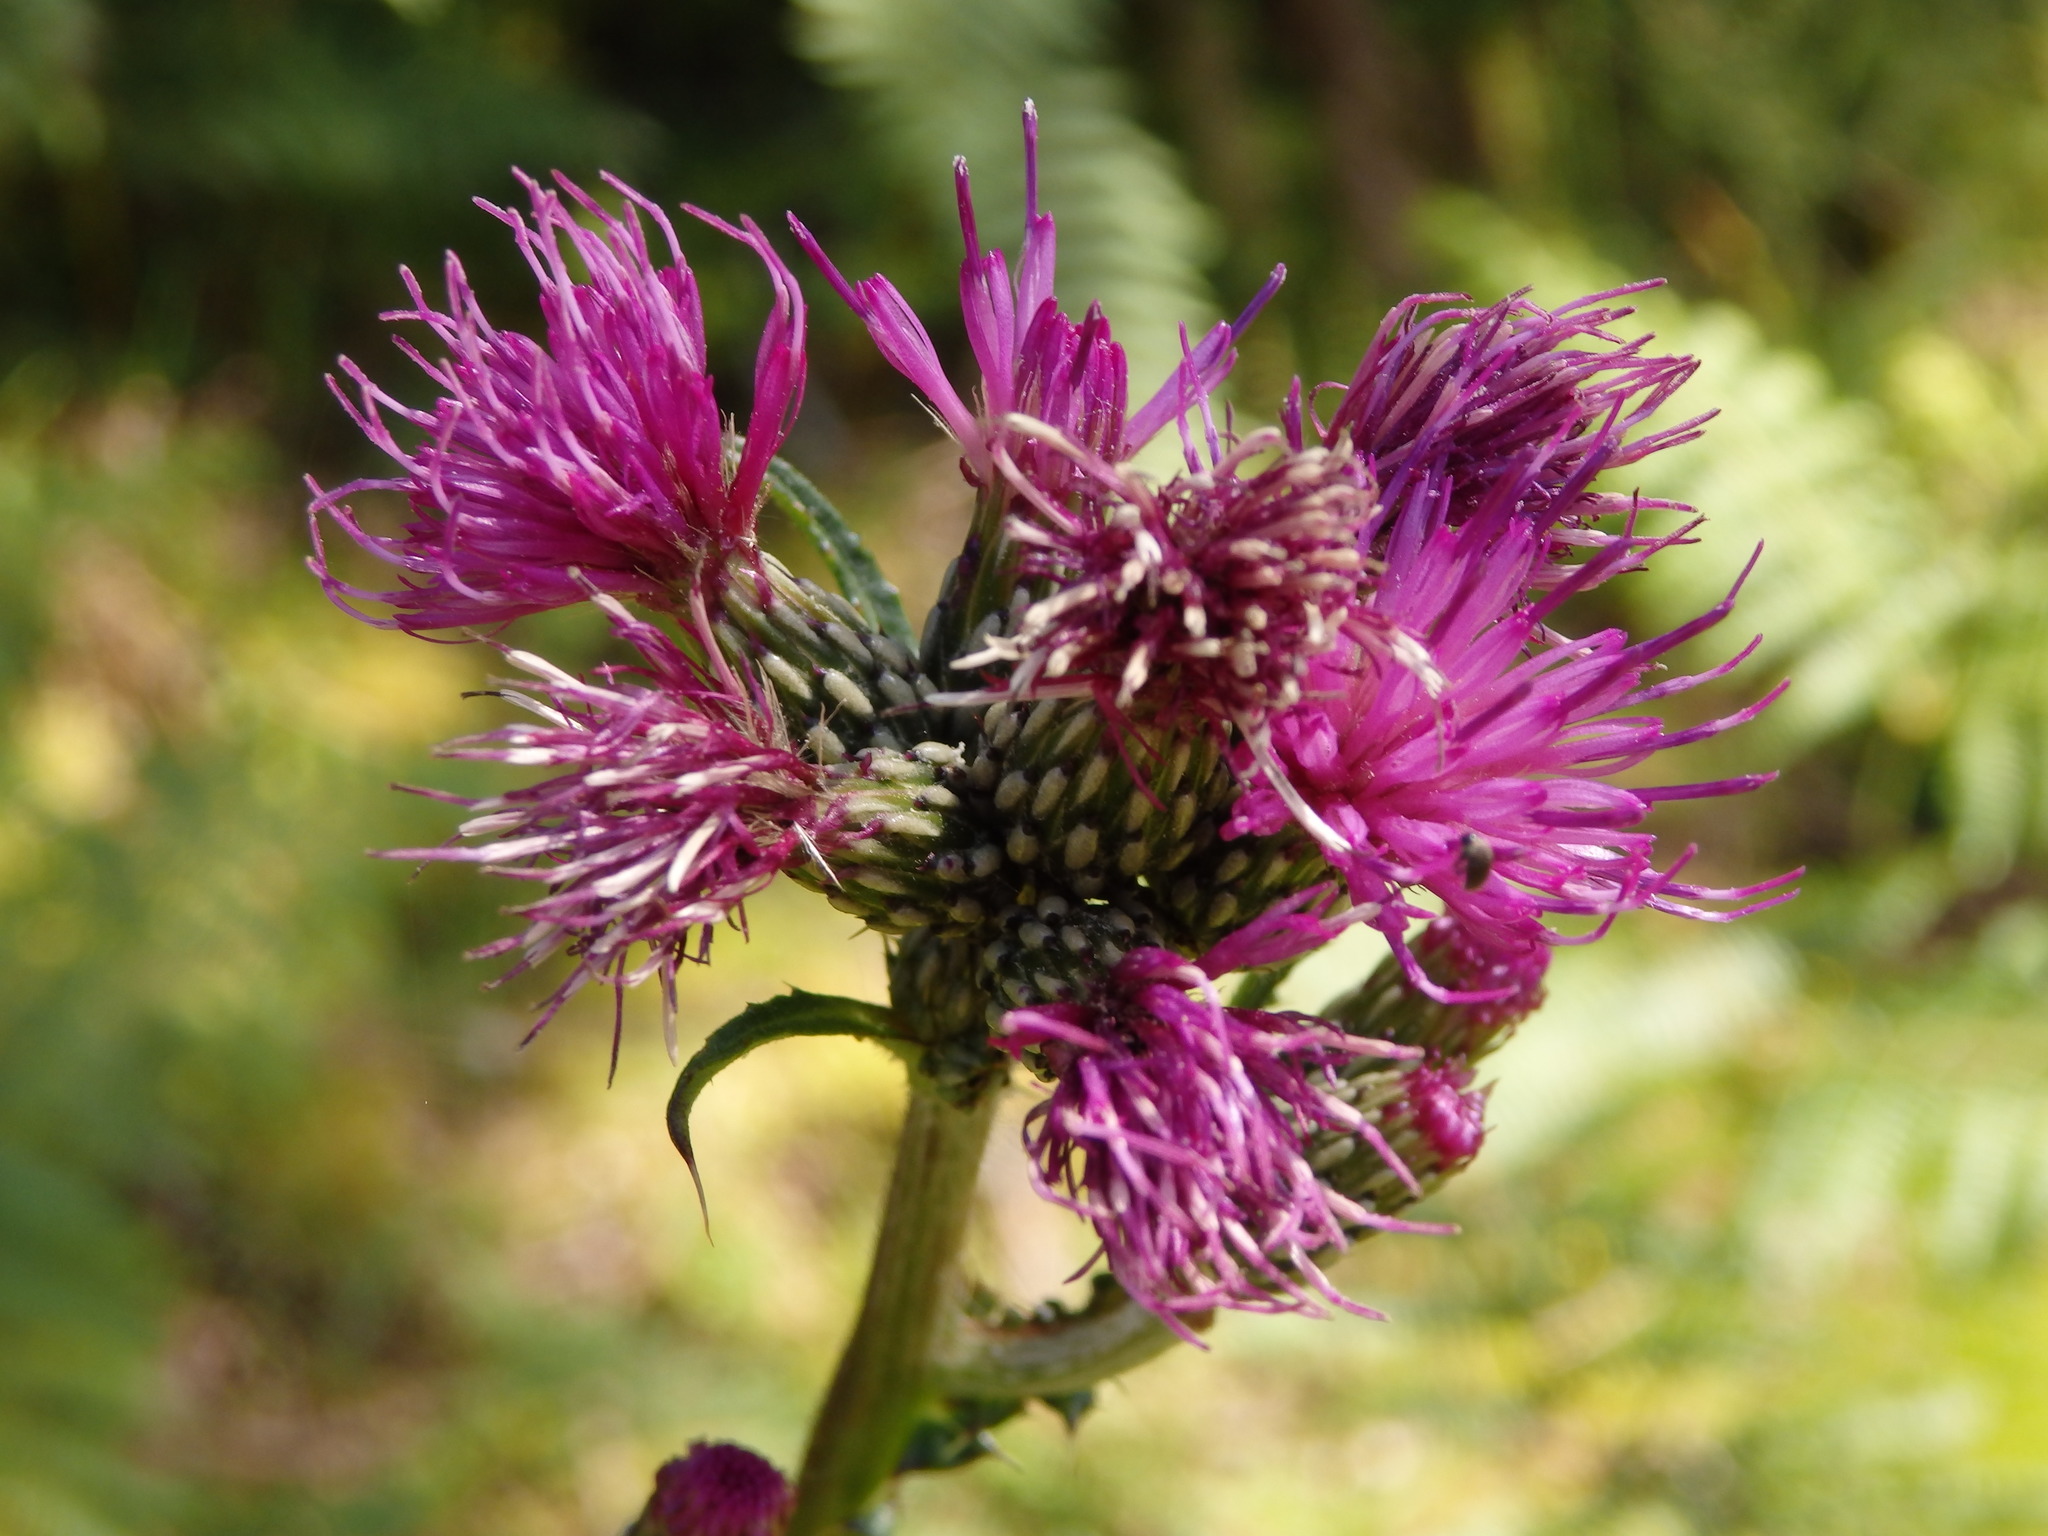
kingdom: Plantae
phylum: Tracheophyta
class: Magnoliopsida
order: Asterales
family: Asteraceae
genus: Cirsium
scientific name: Cirsium palustre
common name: Marsh thistle
